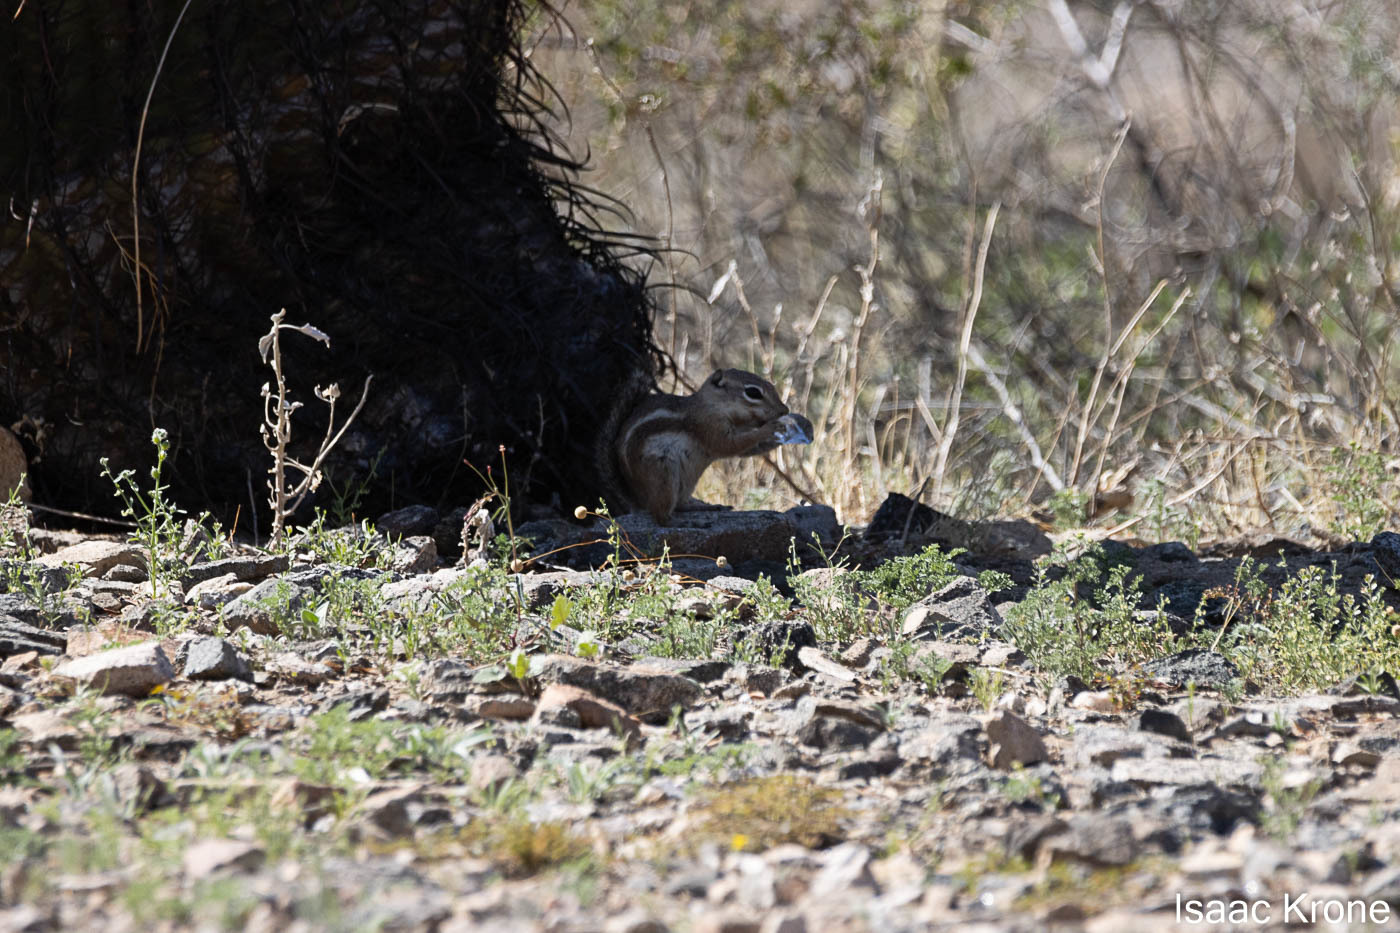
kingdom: Animalia
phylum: Chordata
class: Mammalia
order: Rodentia
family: Sciuridae
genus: Ammospermophilus
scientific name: Ammospermophilus harrisii
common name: Harris's antelope squirrel
